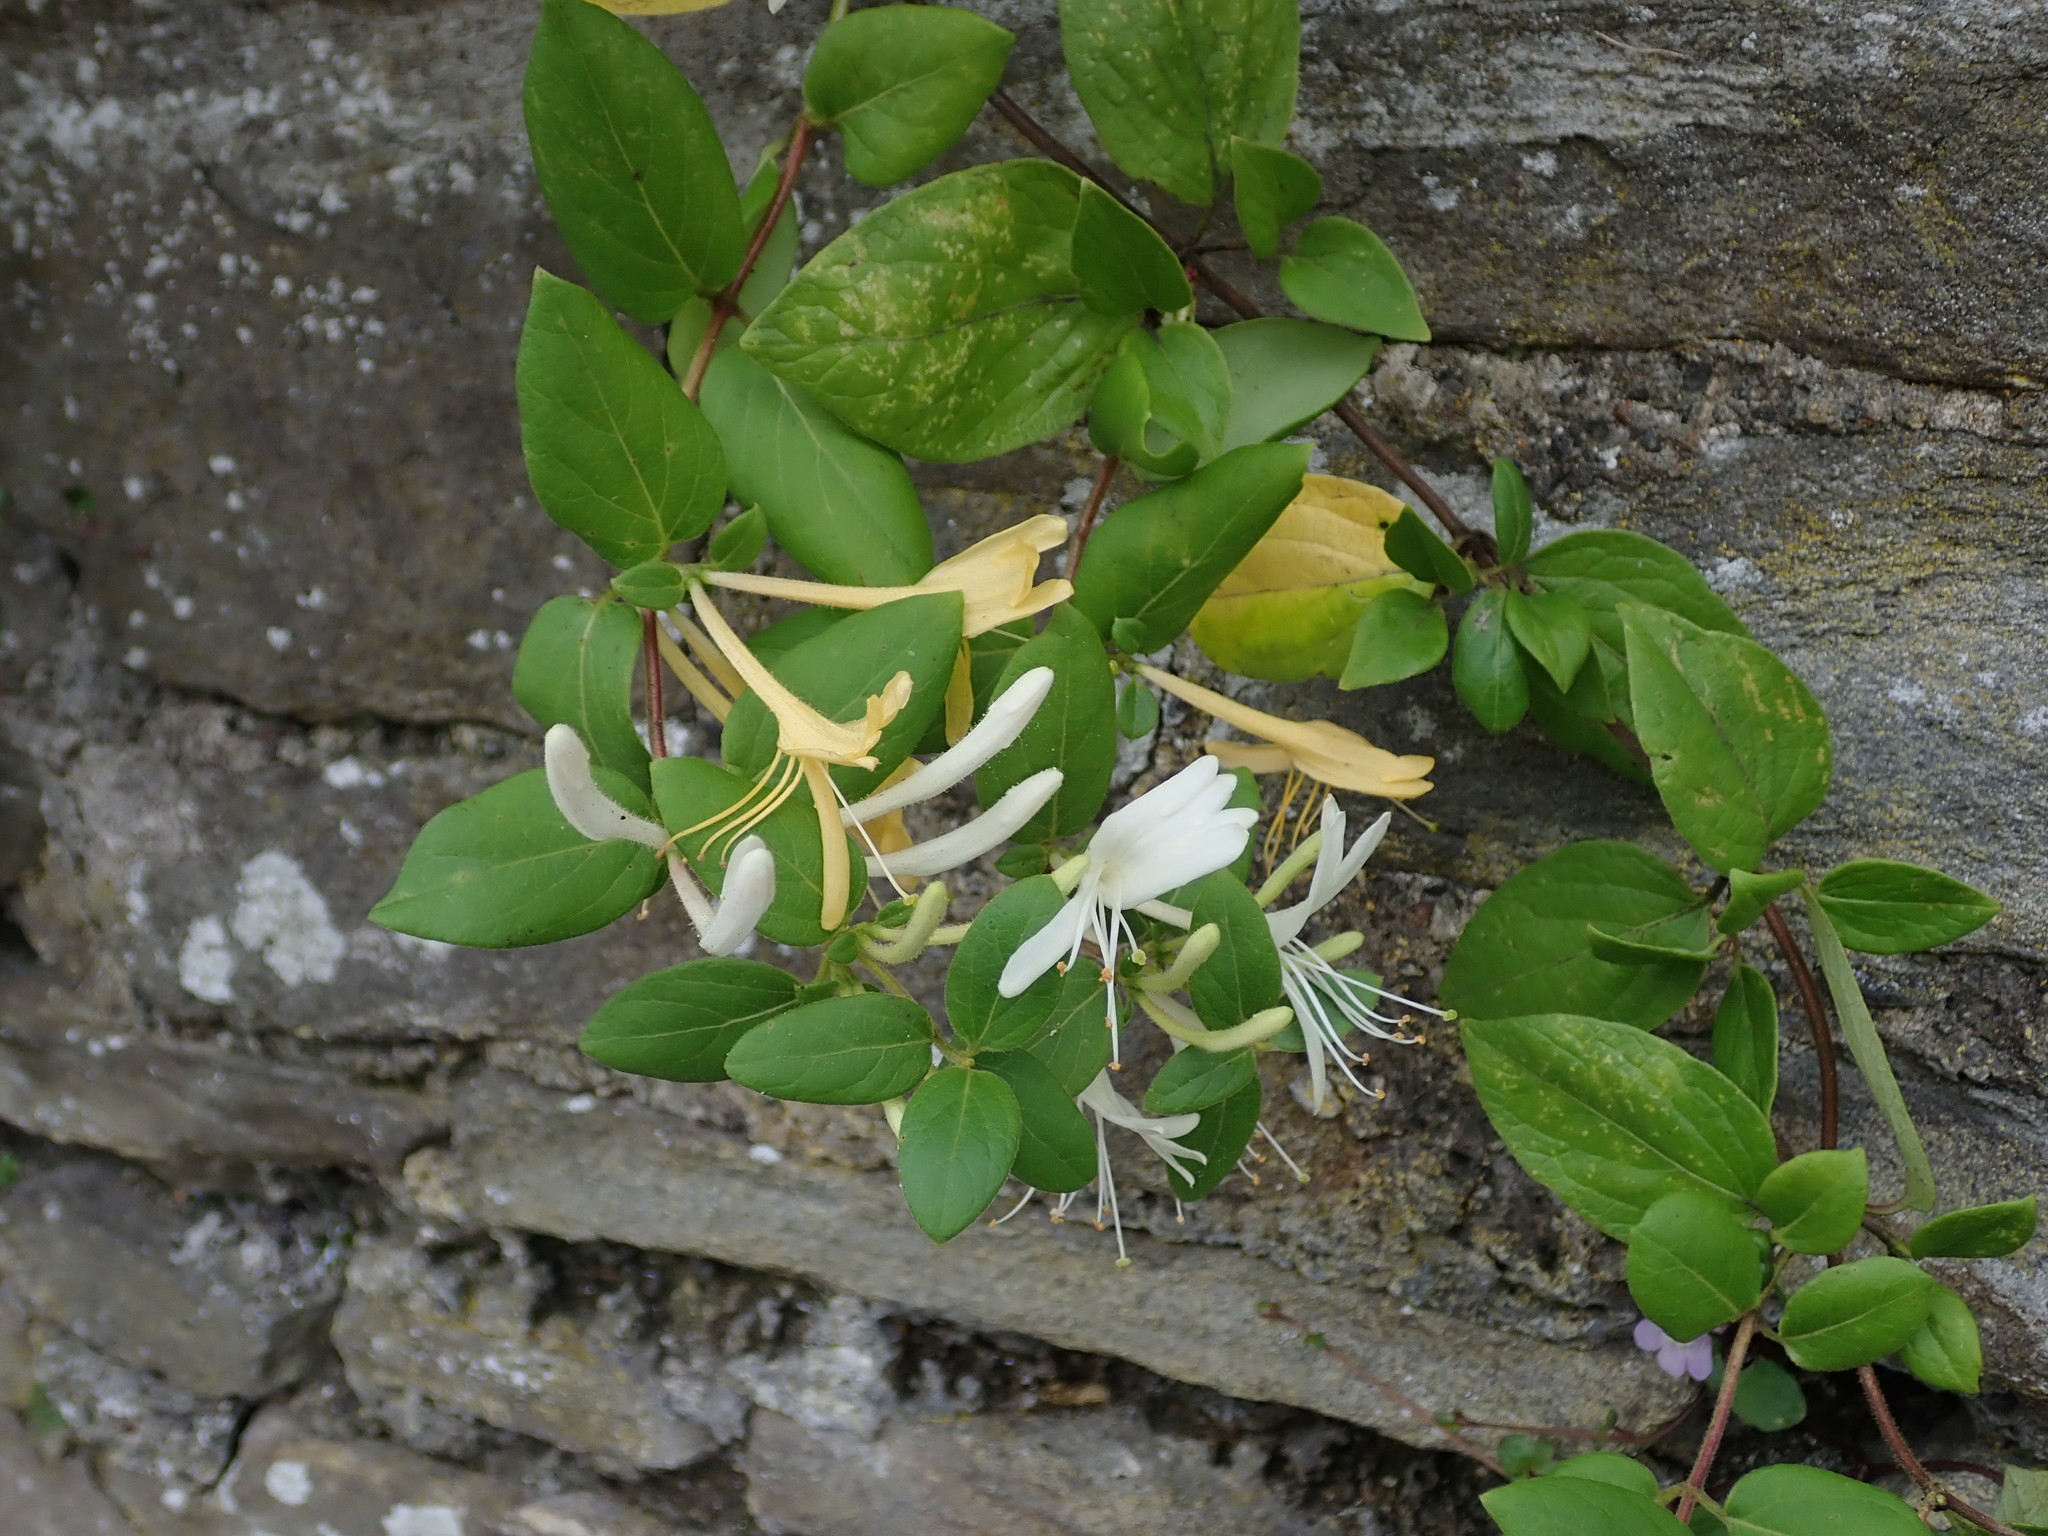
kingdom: Plantae
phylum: Tracheophyta
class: Magnoliopsida
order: Dipsacales
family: Caprifoliaceae
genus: Lonicera
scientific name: Lonicera japonica
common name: Japanese honeysuckle
